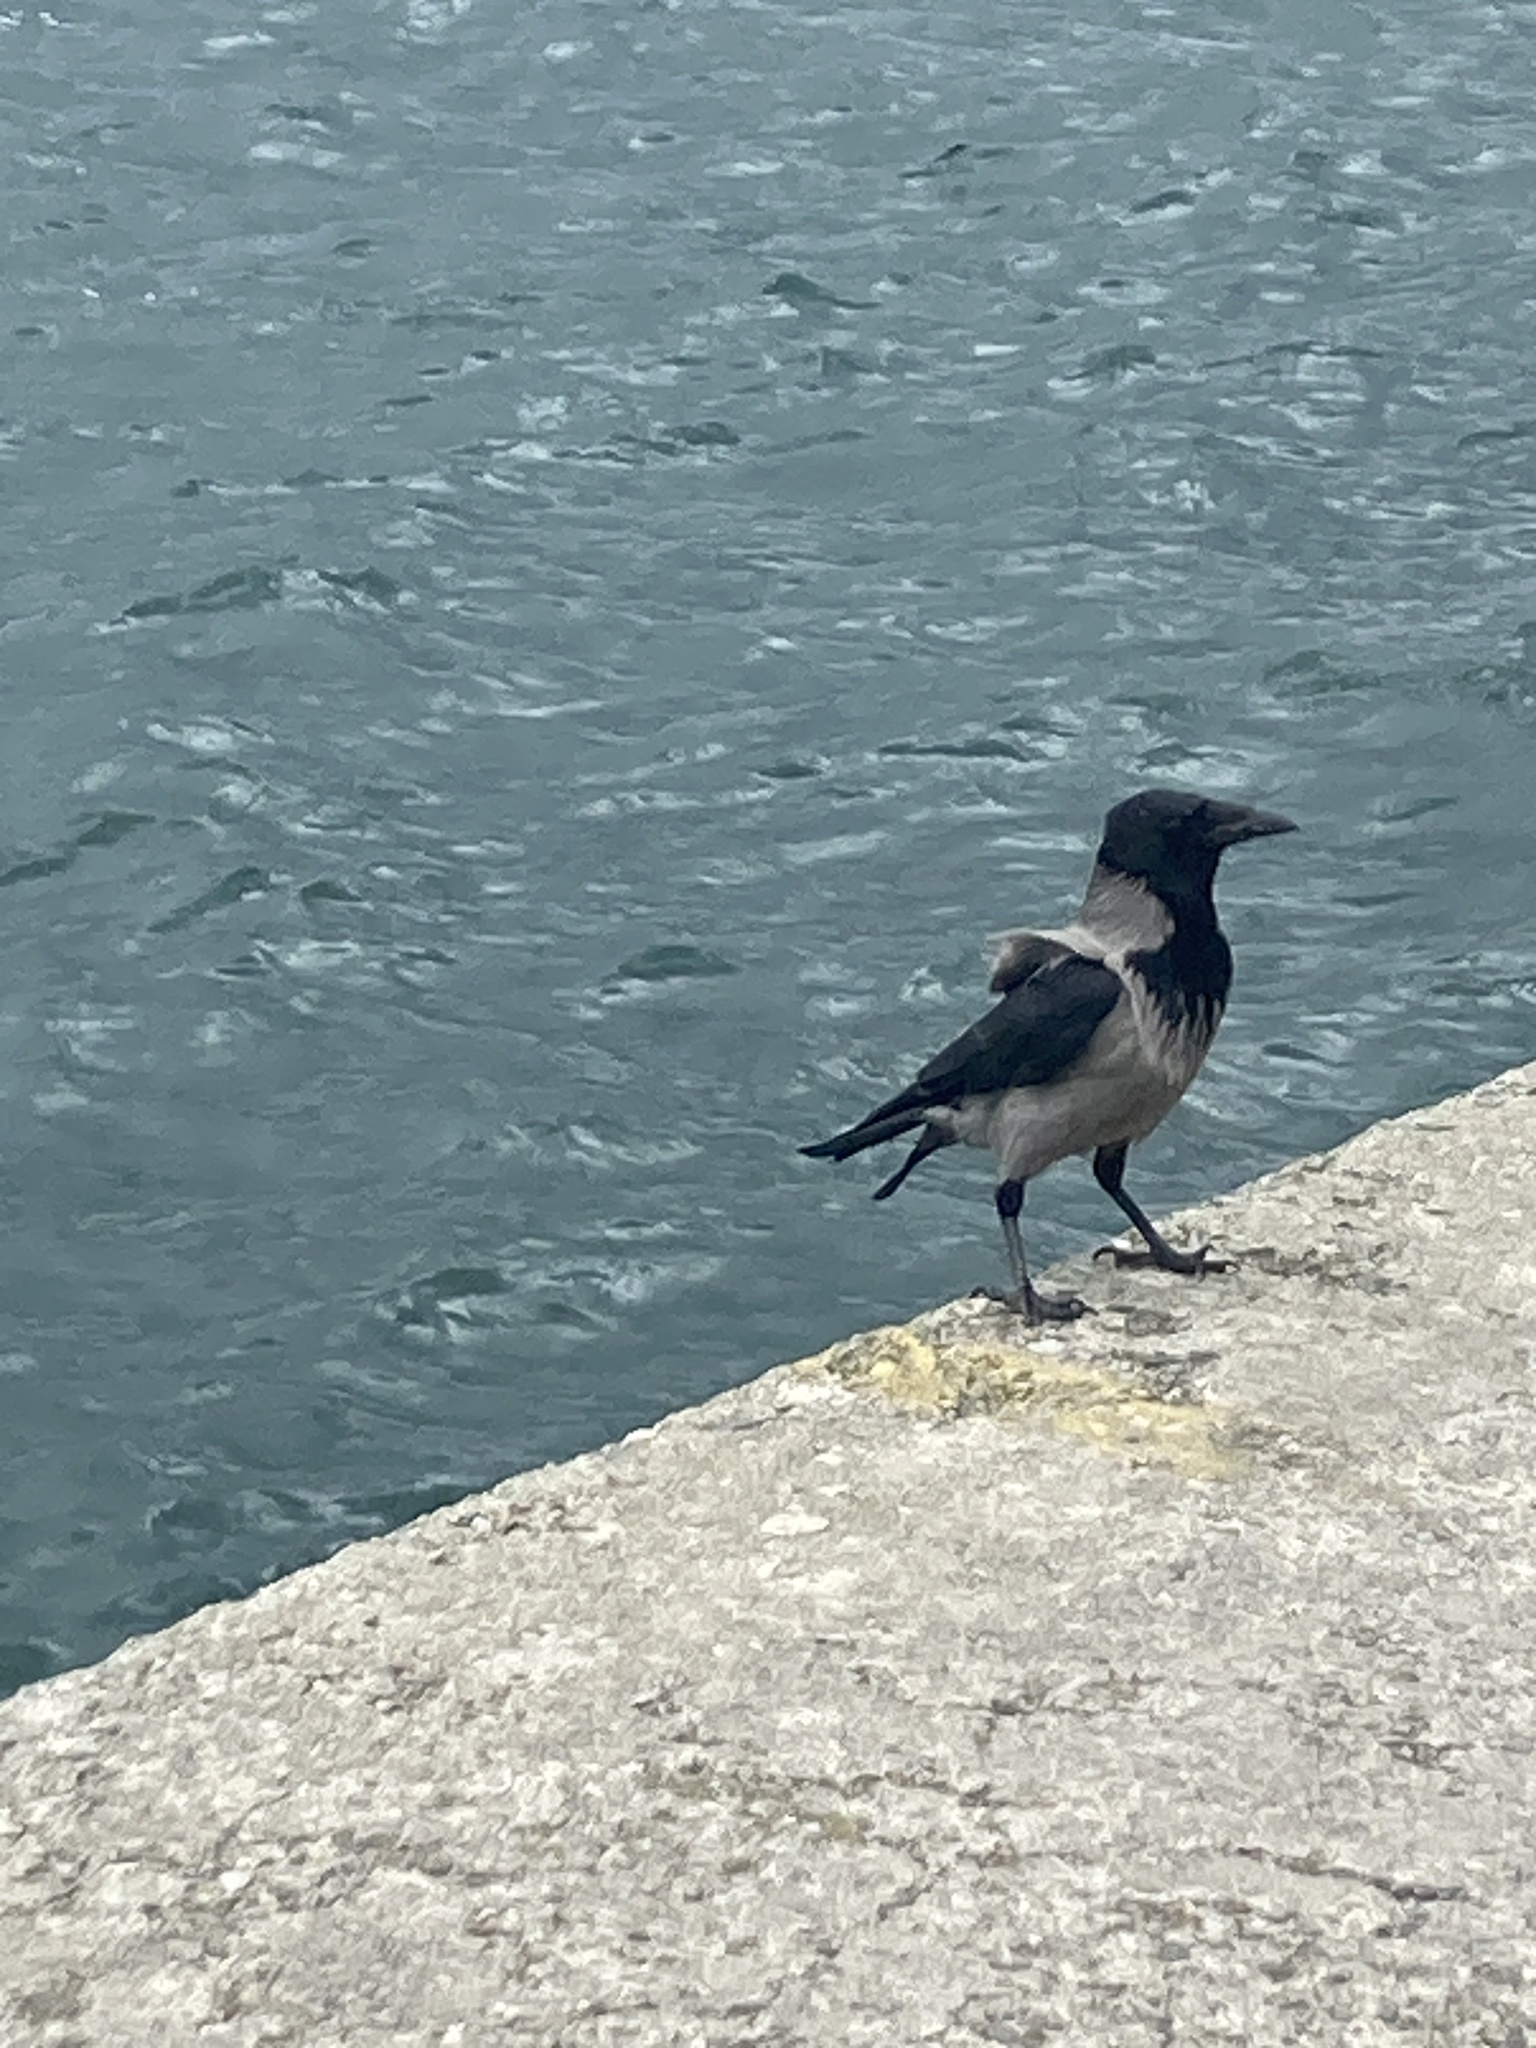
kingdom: Animalia
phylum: Chordata
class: Aves
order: Passeriformes
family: Corvidae
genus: Corvus
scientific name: Corvus cornix
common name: Hooded crow
